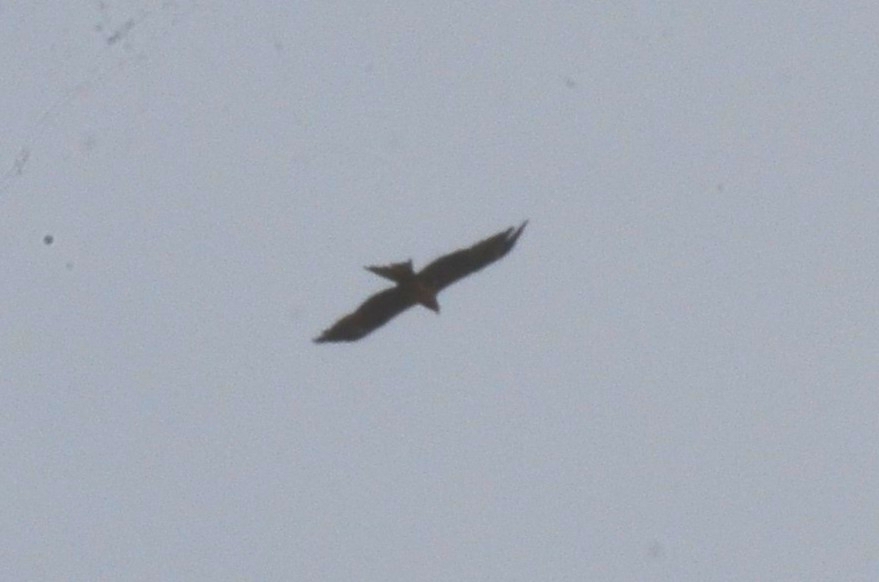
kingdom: Animalia
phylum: Chordata
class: Aves
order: Accipitriformes
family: Accipitridae
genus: Milvus
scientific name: Milvus migrans
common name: Black kite
